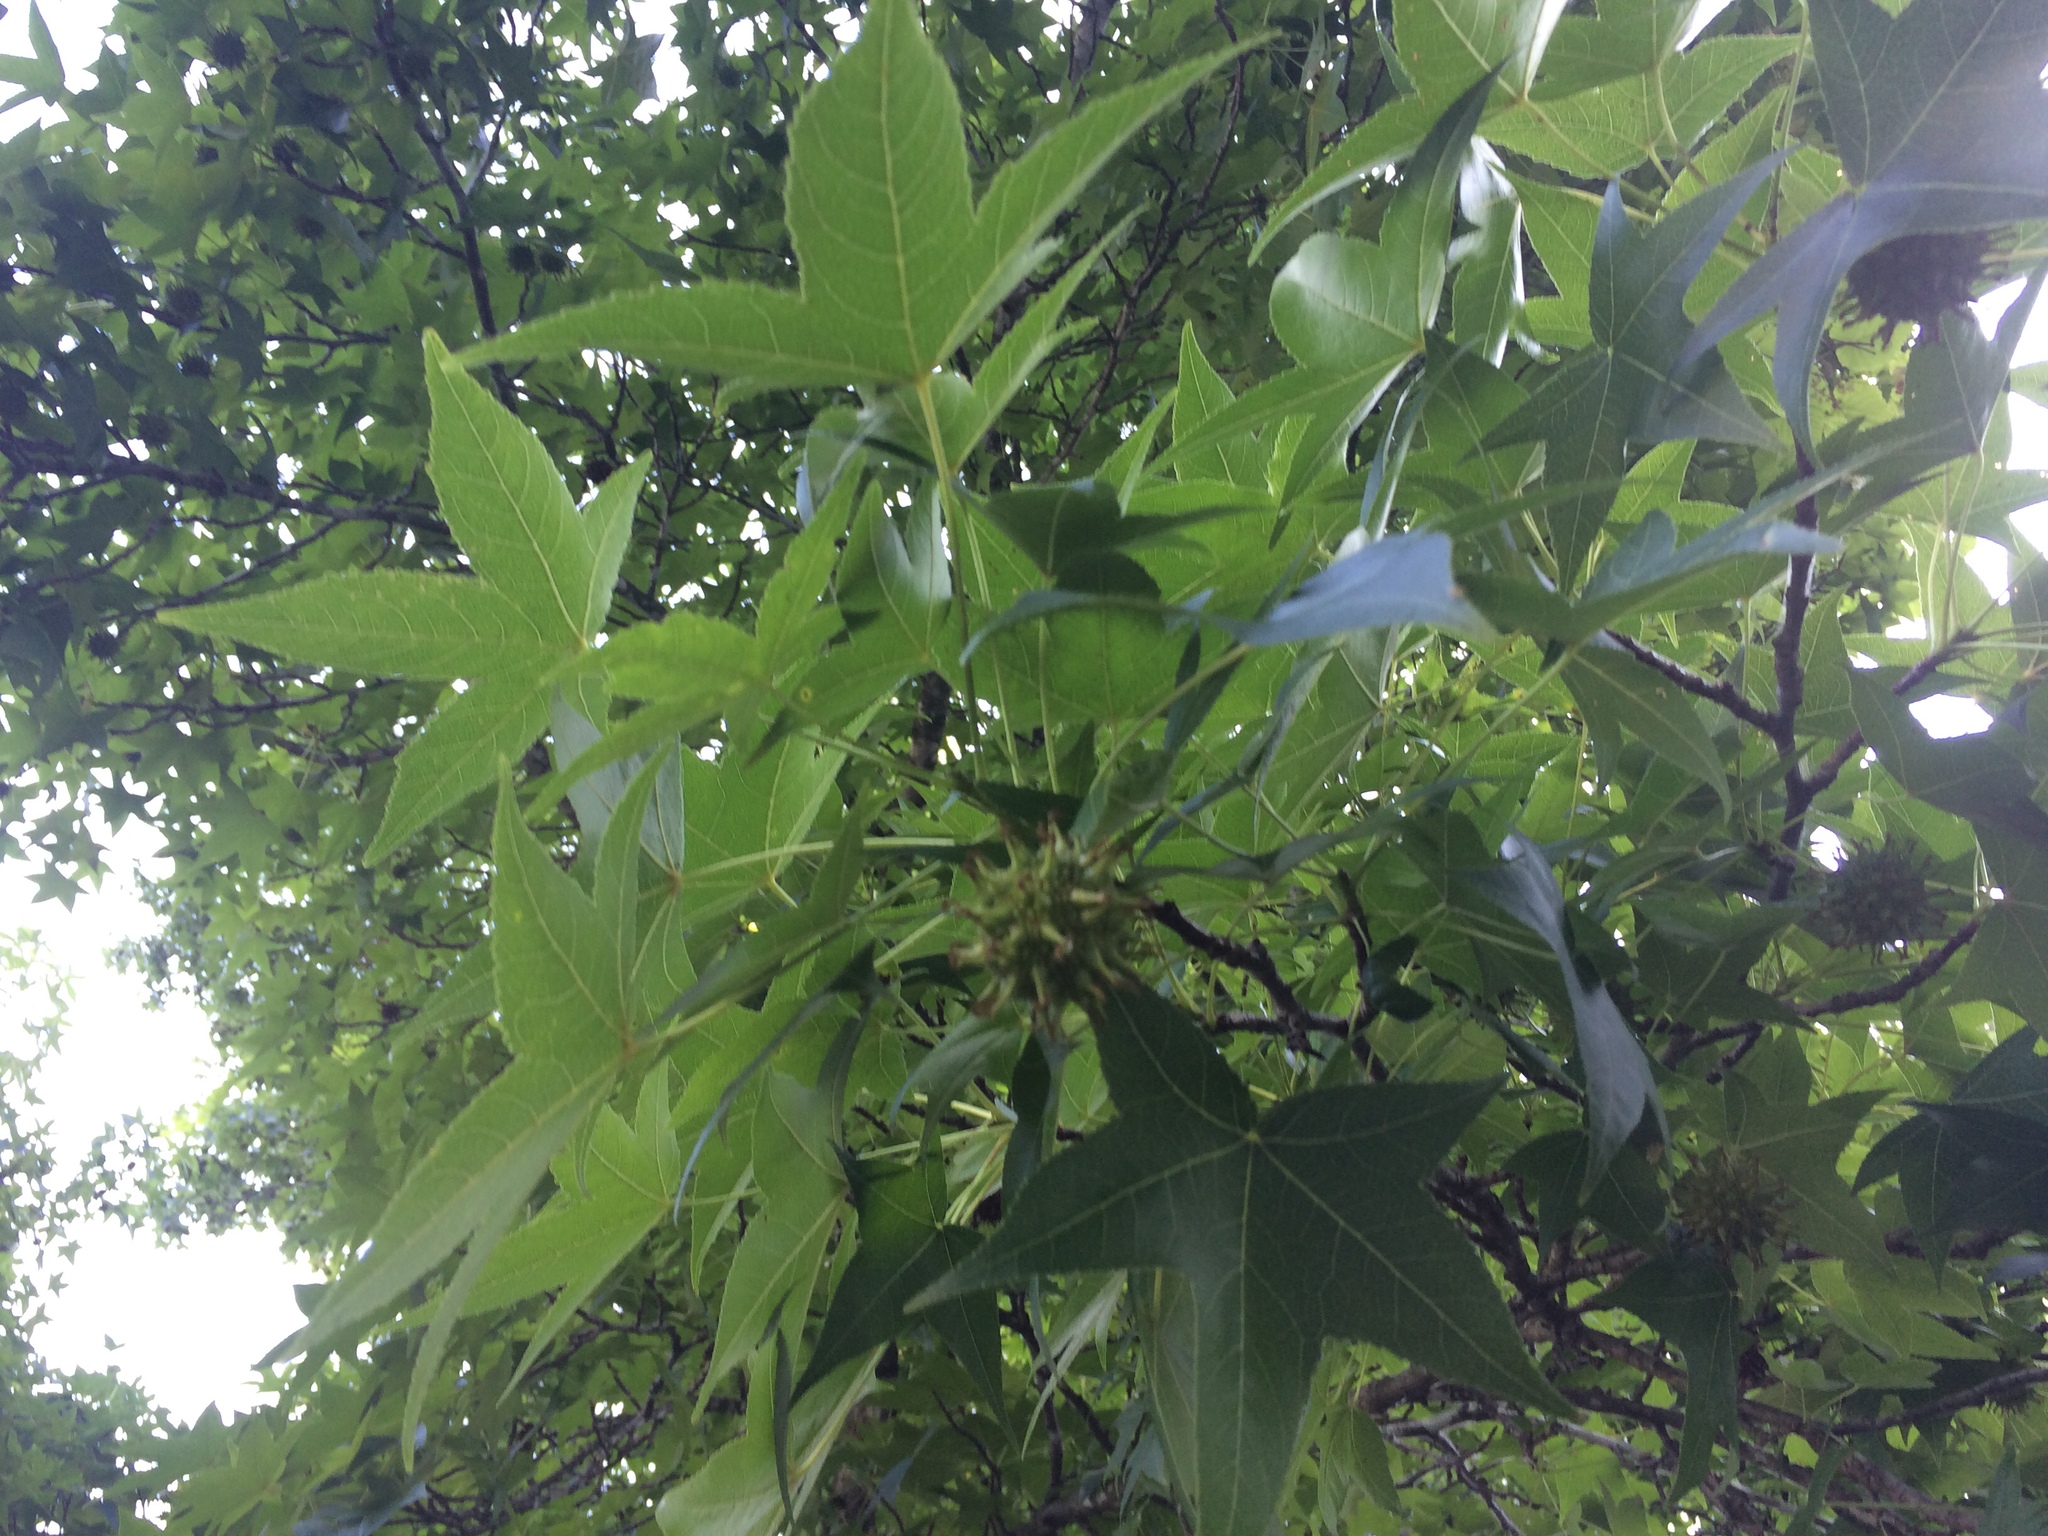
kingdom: Plantae
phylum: Tracheophyta
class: Magnoliopsida
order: Saxifragales
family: Altingiaceae
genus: Liquidambar
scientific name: Liquidambar styraciflua
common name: Sweet gum
